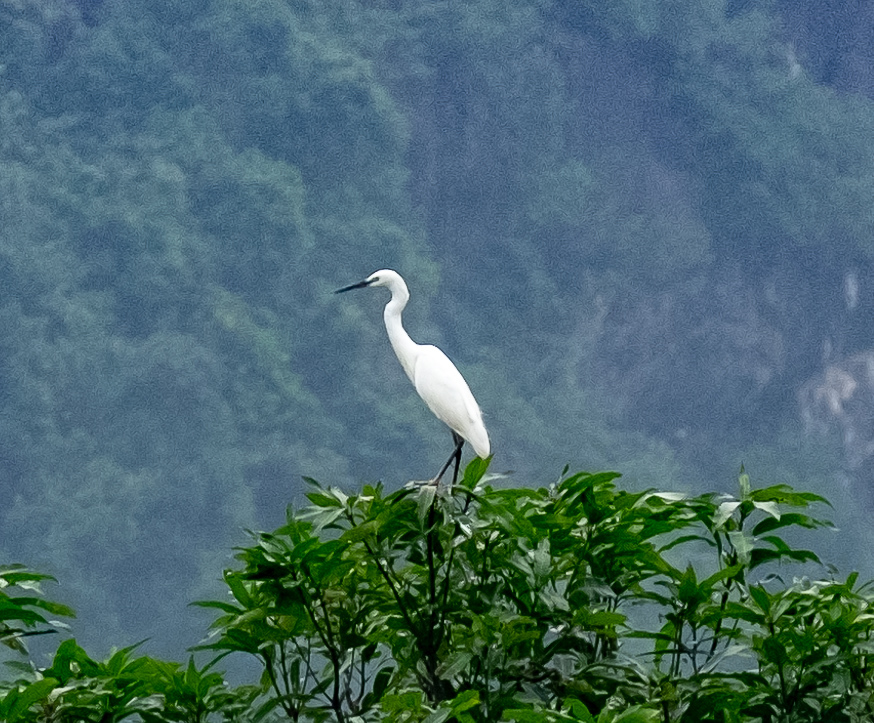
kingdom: Animalia
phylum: Chordata
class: Aves
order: Pelecaniformes
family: Ardeidae
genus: Egretta
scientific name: Egretta garzetta
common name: Little egret
